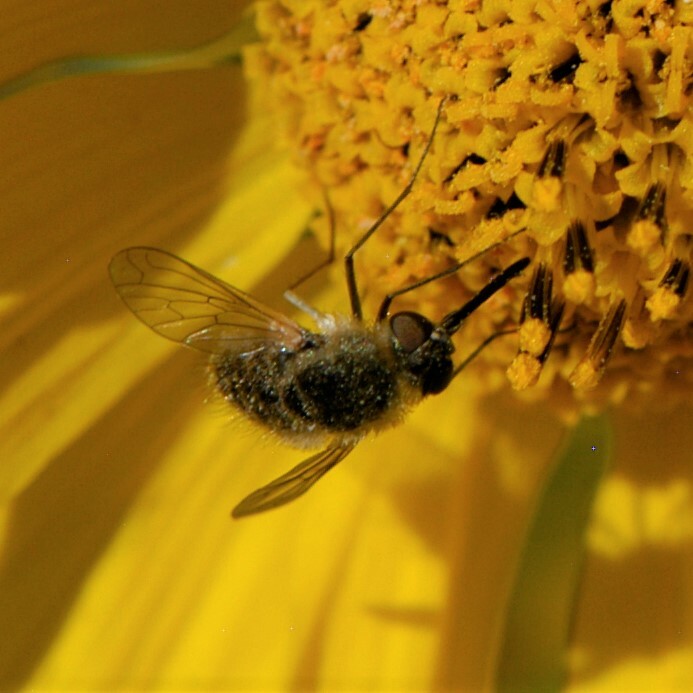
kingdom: Animalia
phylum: Arthropoda
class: Insecta
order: Diptera
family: Bombyliidae
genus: Sparnopolius
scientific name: Sparnopolius
